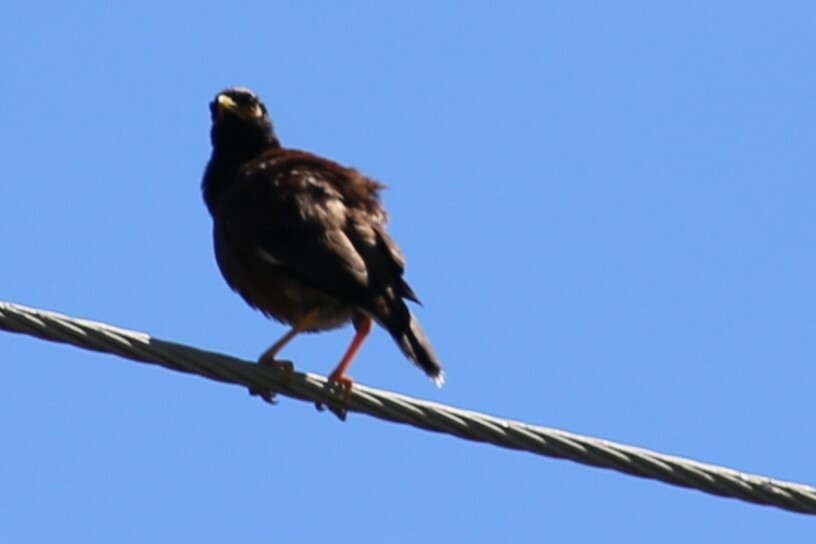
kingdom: Animalia
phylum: Chordata
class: Aves
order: Passeriformes
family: Sturnidae
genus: Acridotheres
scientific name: Acridotheres tristis
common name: Common myna
